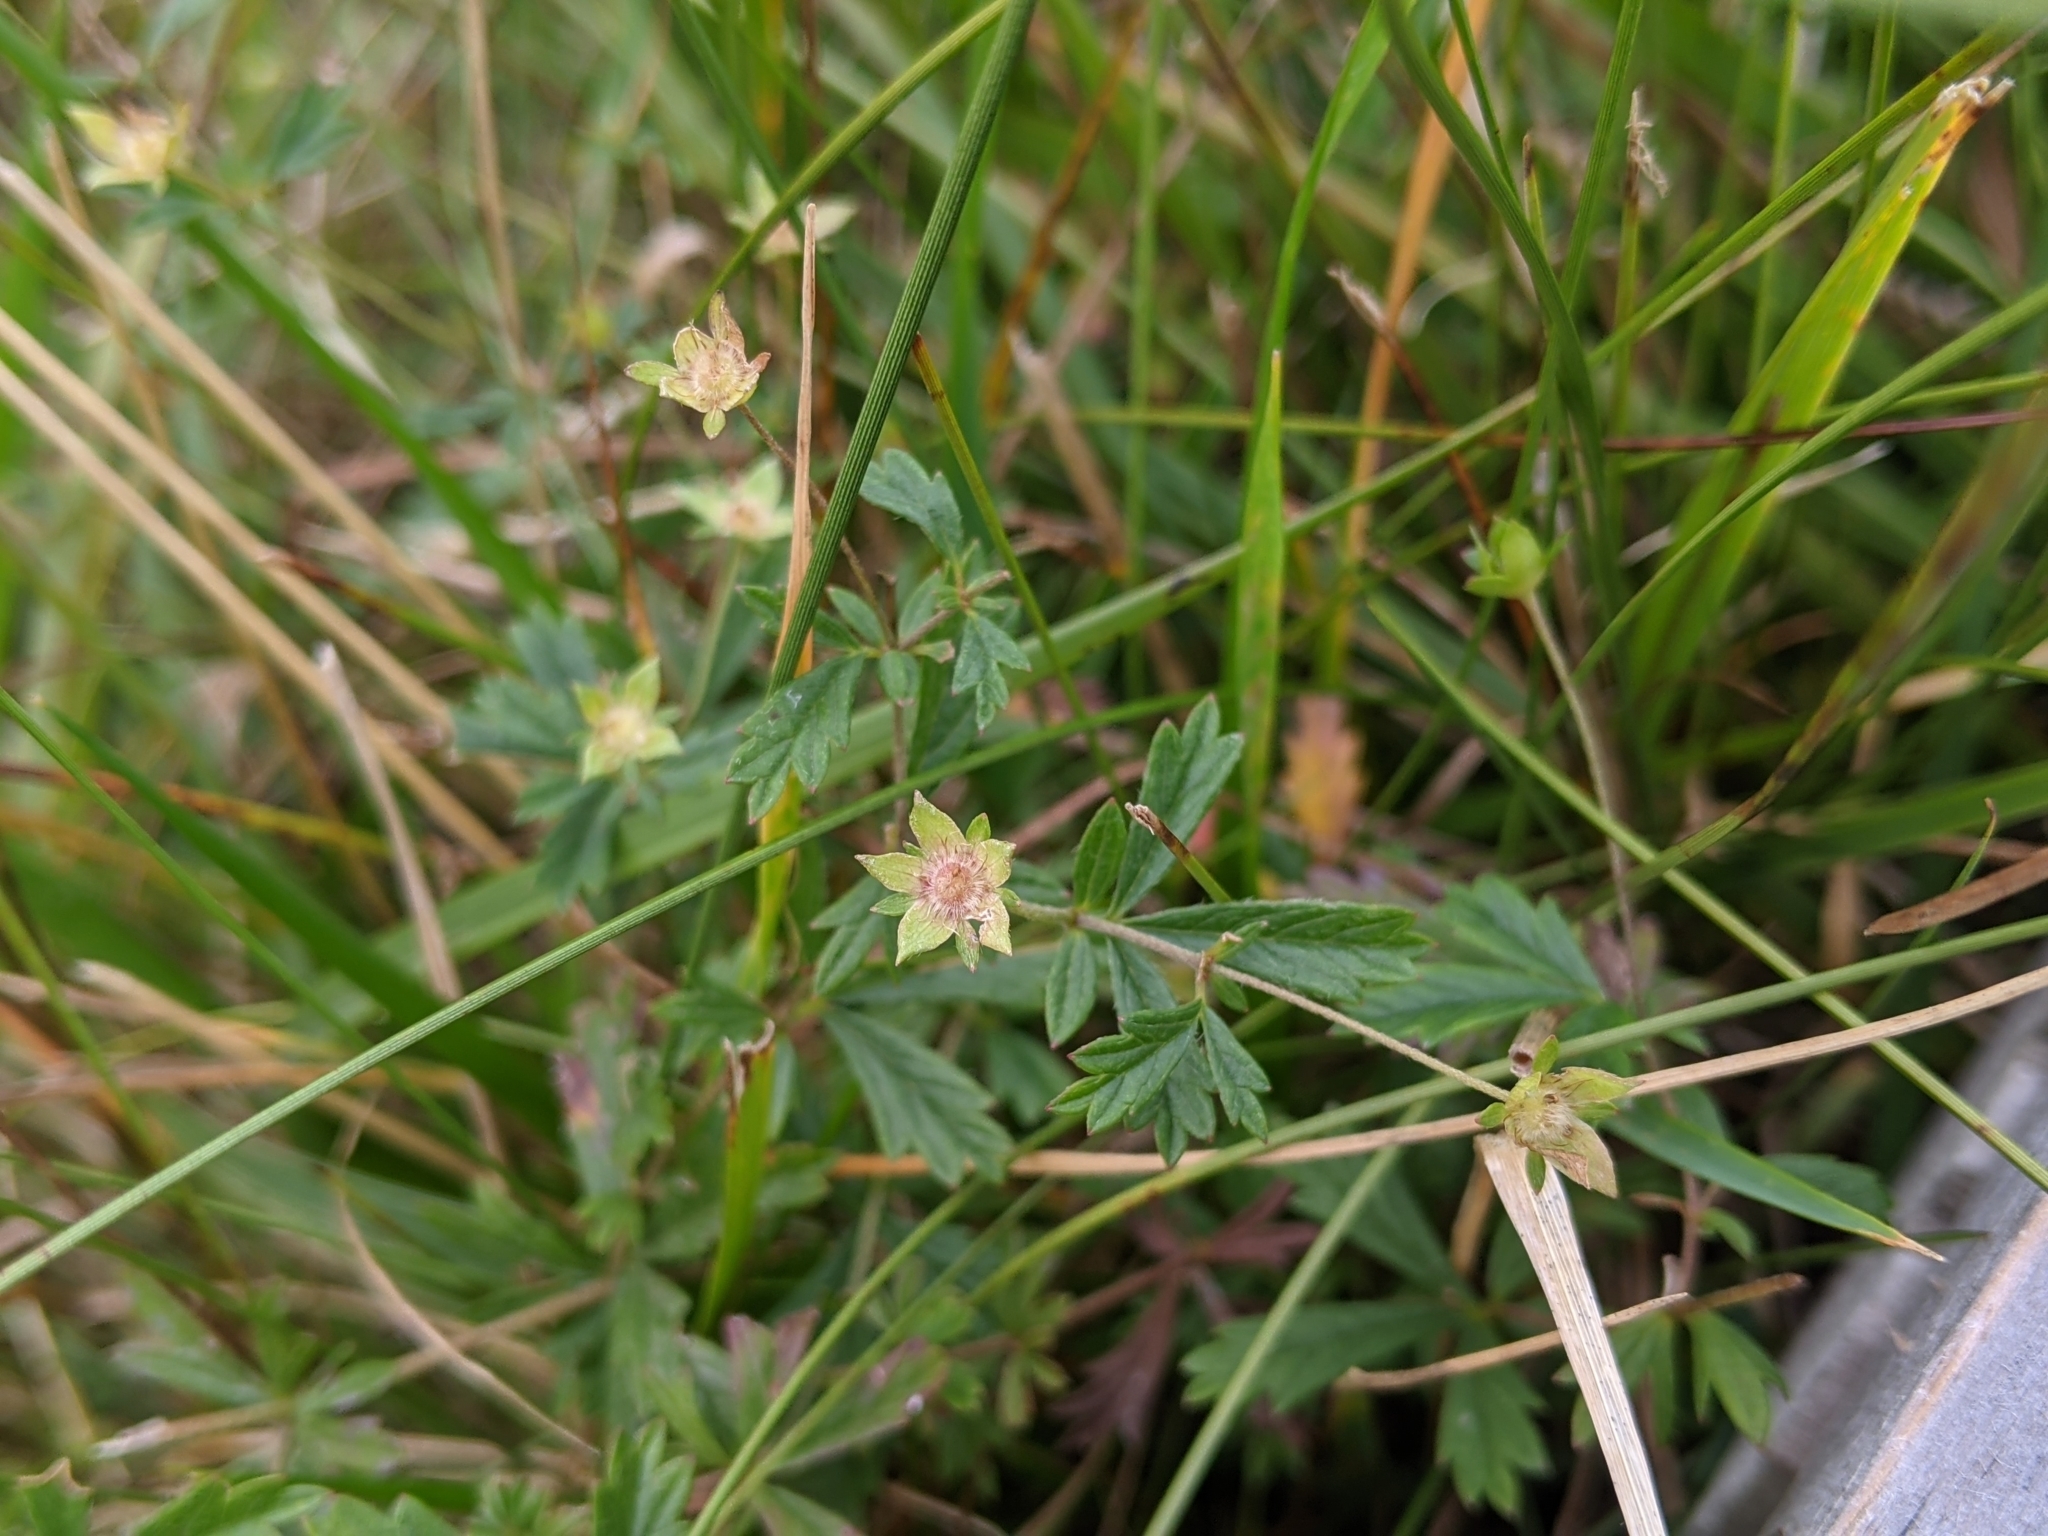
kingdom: Plantae
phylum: Tracheophyta
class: Magnoliopsida
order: Rosales
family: Rosaceae
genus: Potentilla
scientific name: Potentilla erecta
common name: Tormentil
